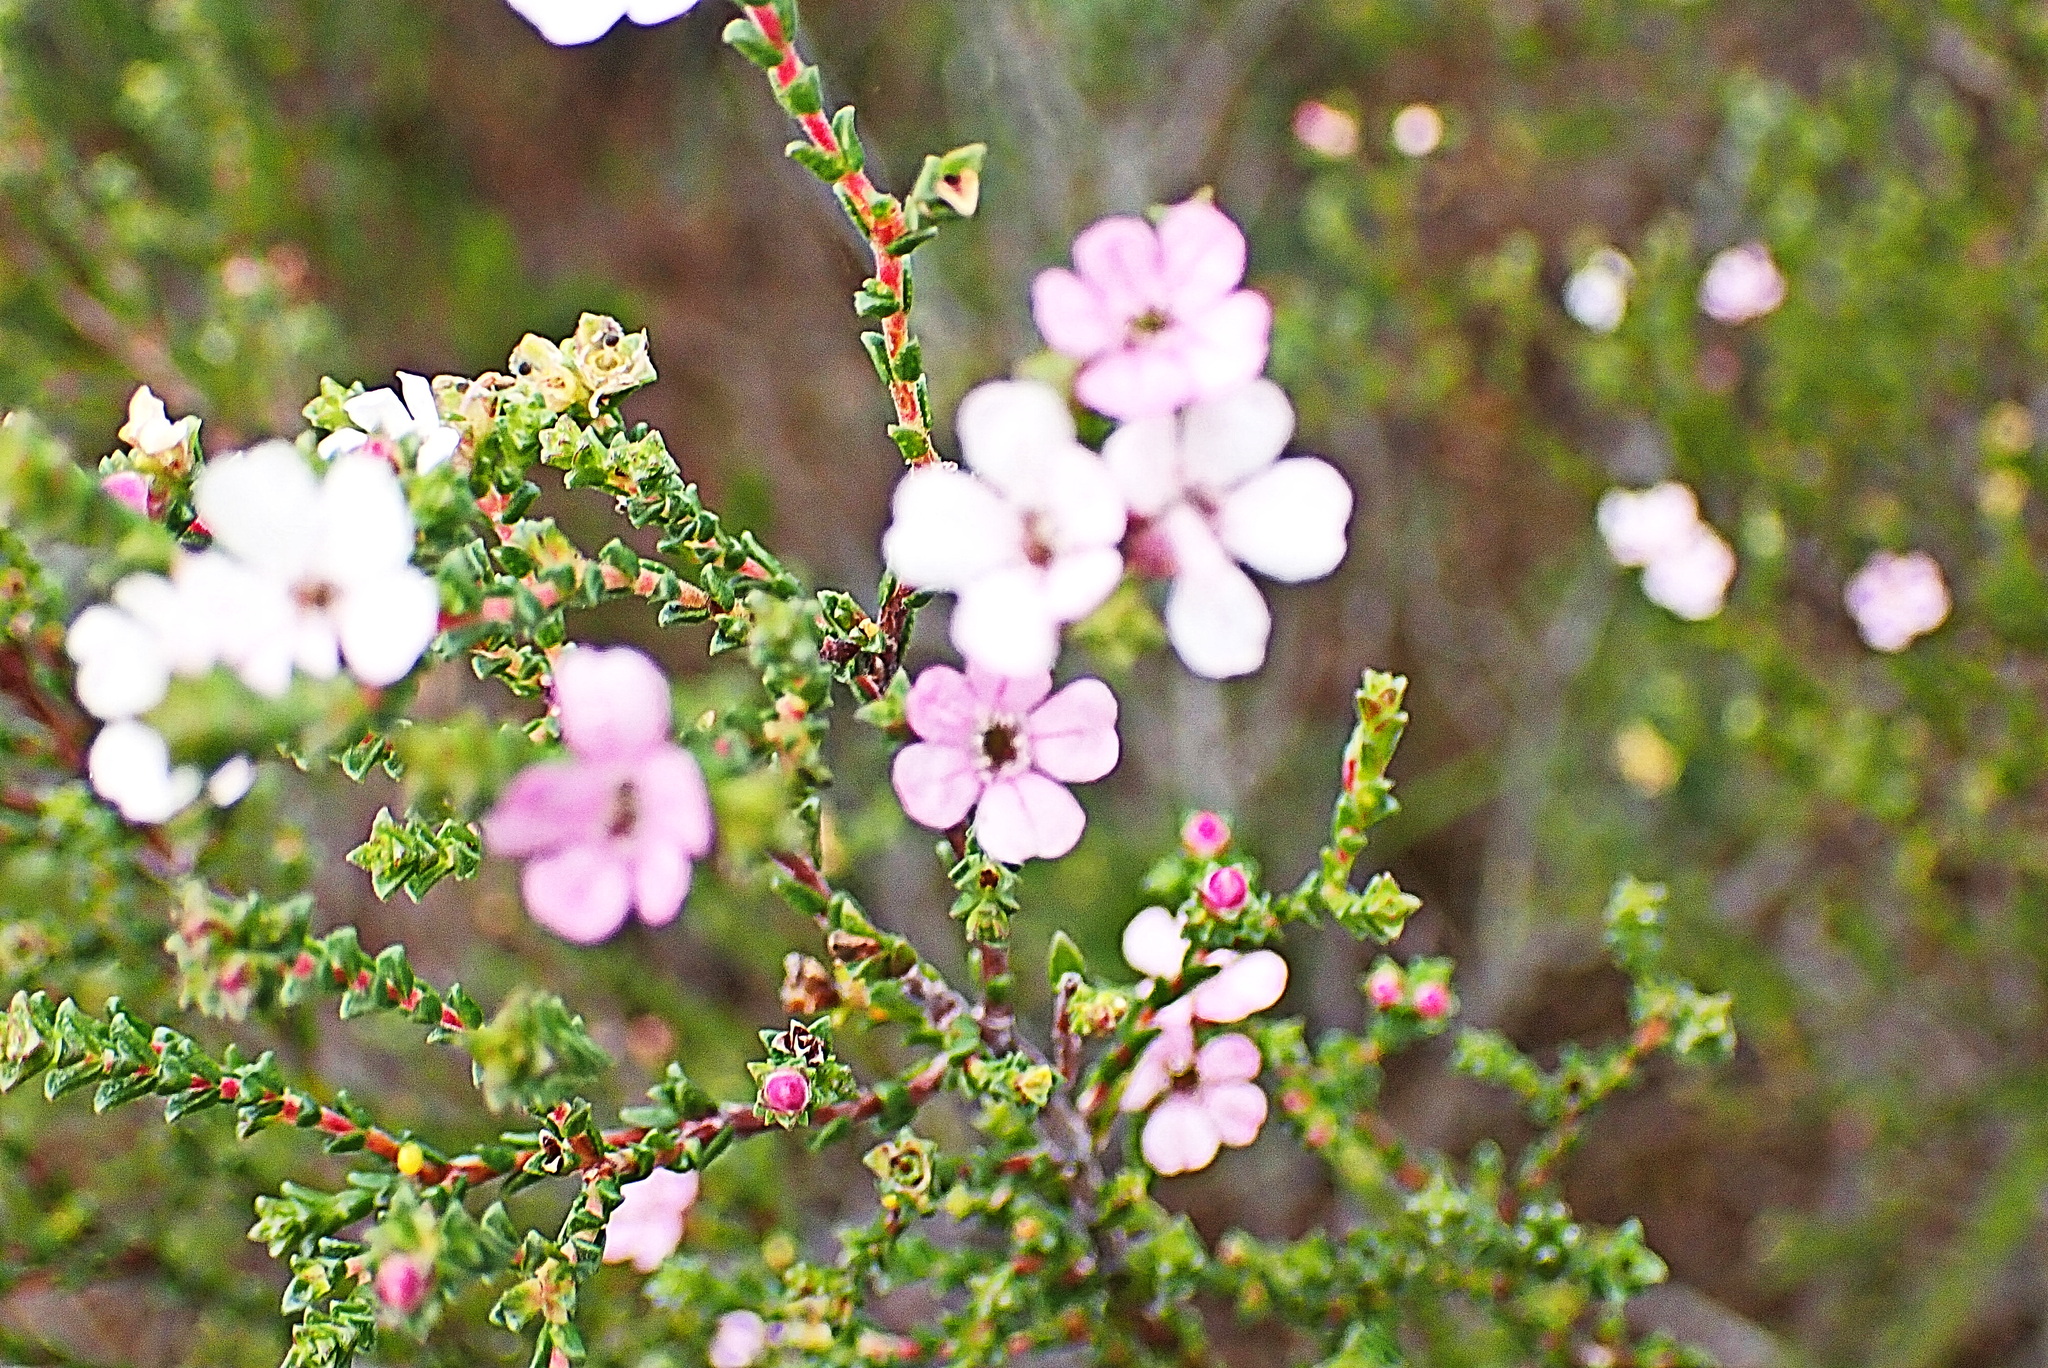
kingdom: Plantae
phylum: Tracheophyta
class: Magnoliopsida
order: Sapindales
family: Rutaceae
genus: Euchaetis
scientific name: Euchaetis albertiniana
